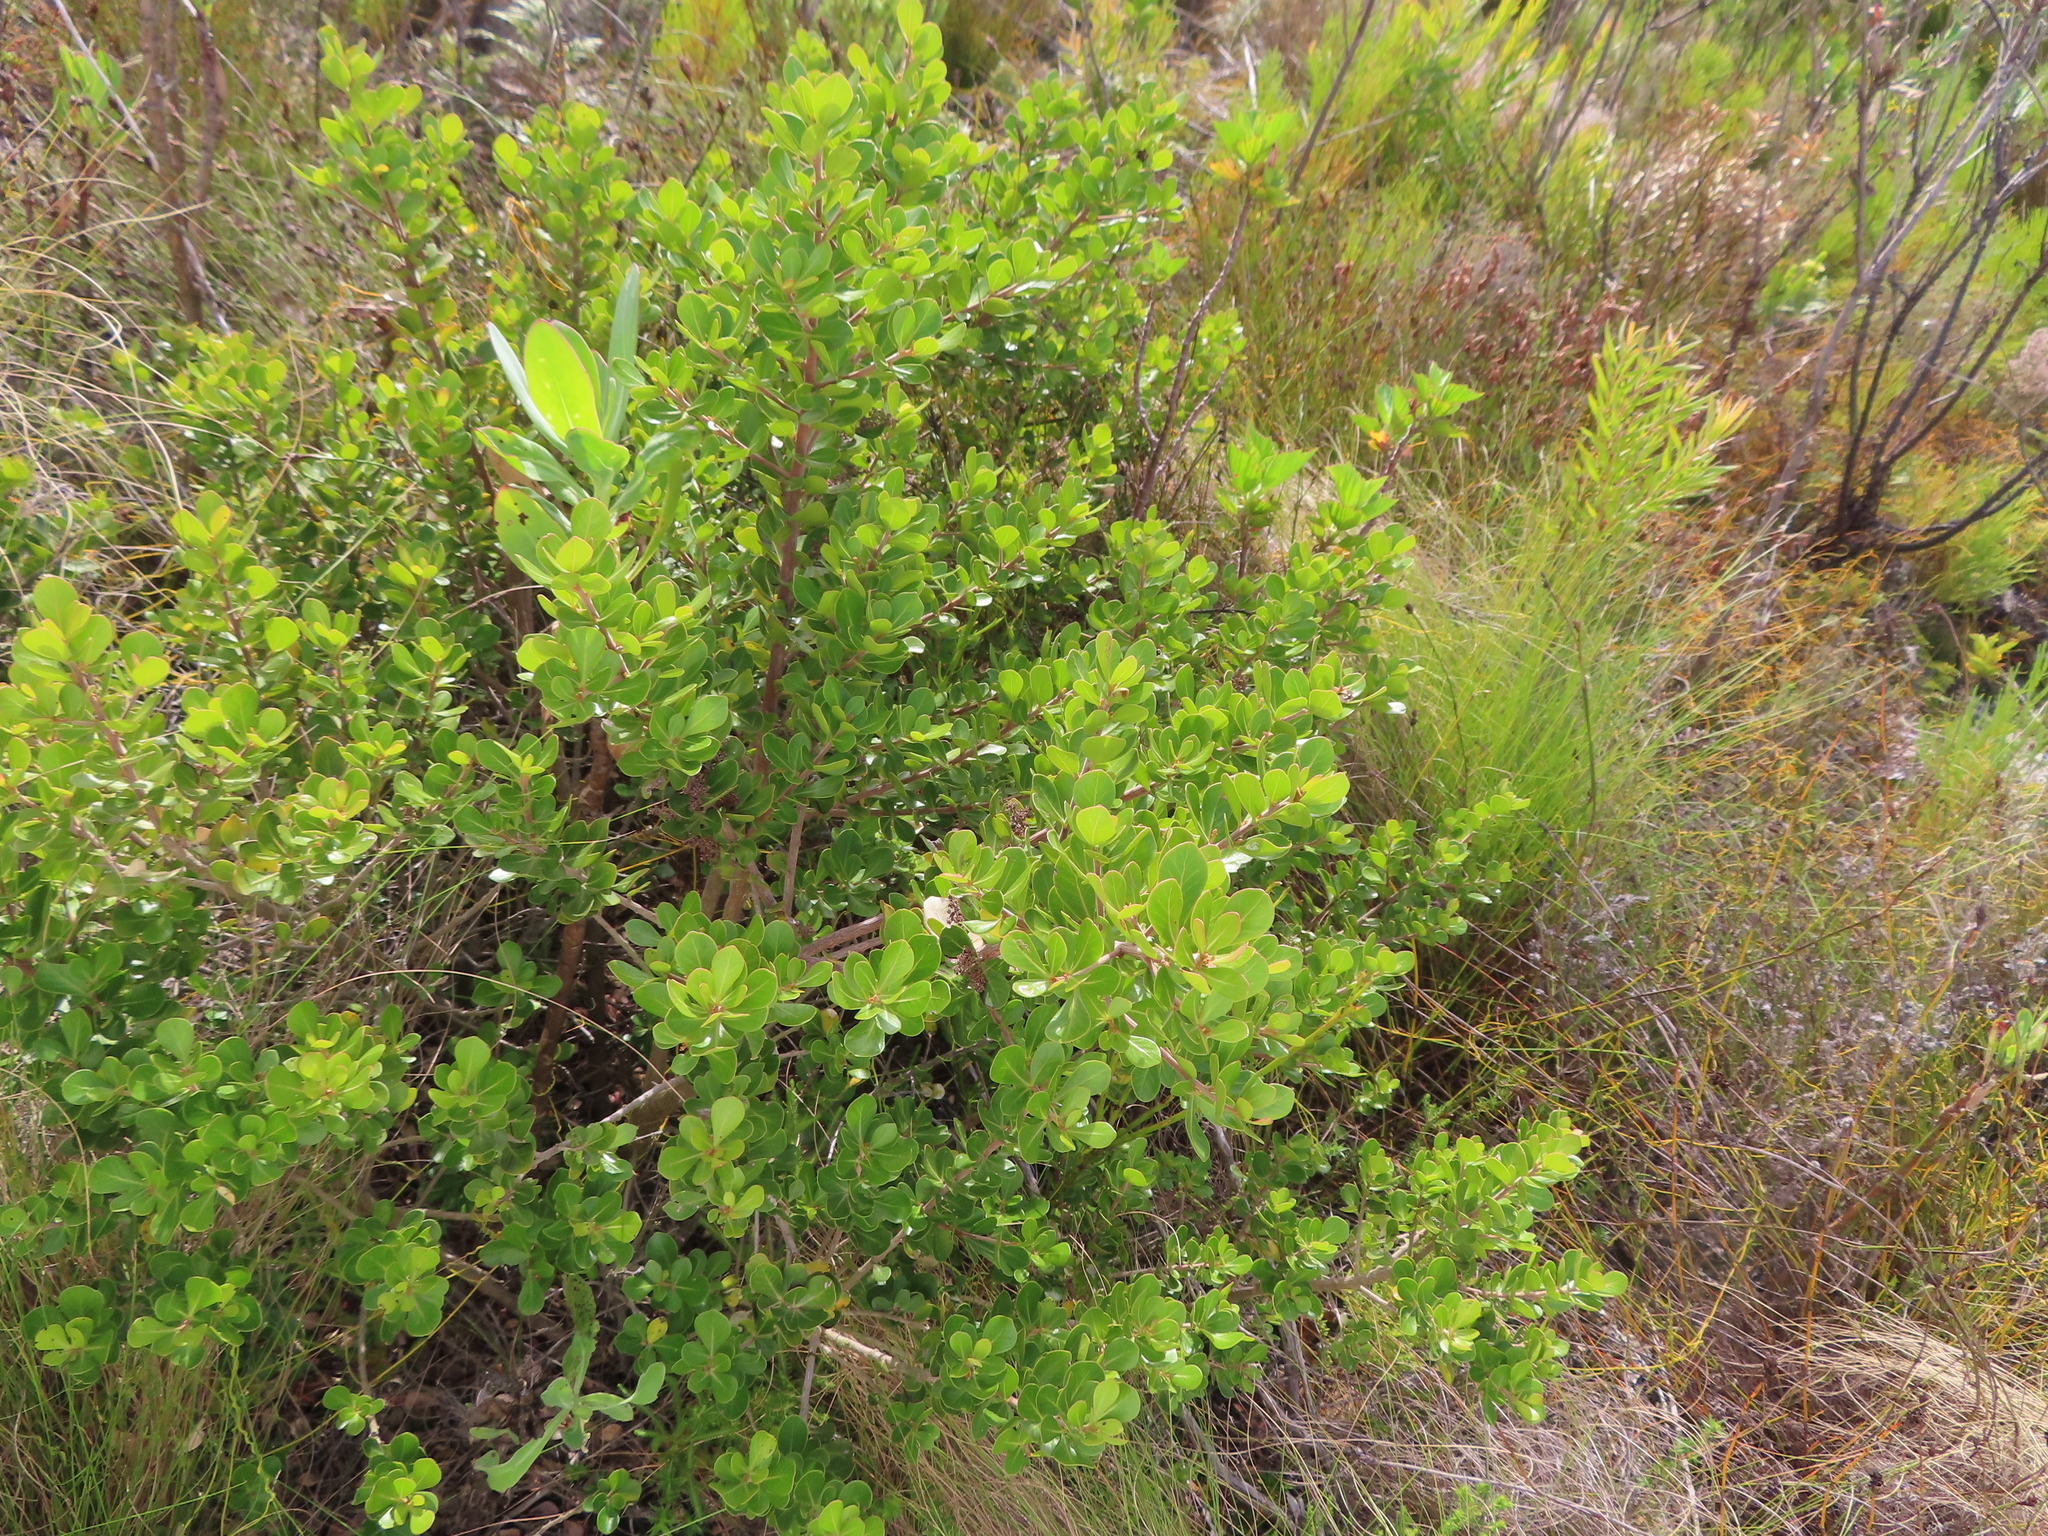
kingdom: Plantae
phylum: Tracheophyta
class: Magnoliopsida
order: Sapindales
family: Anacardiaceae
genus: Searsia
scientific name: Searsia lucida
